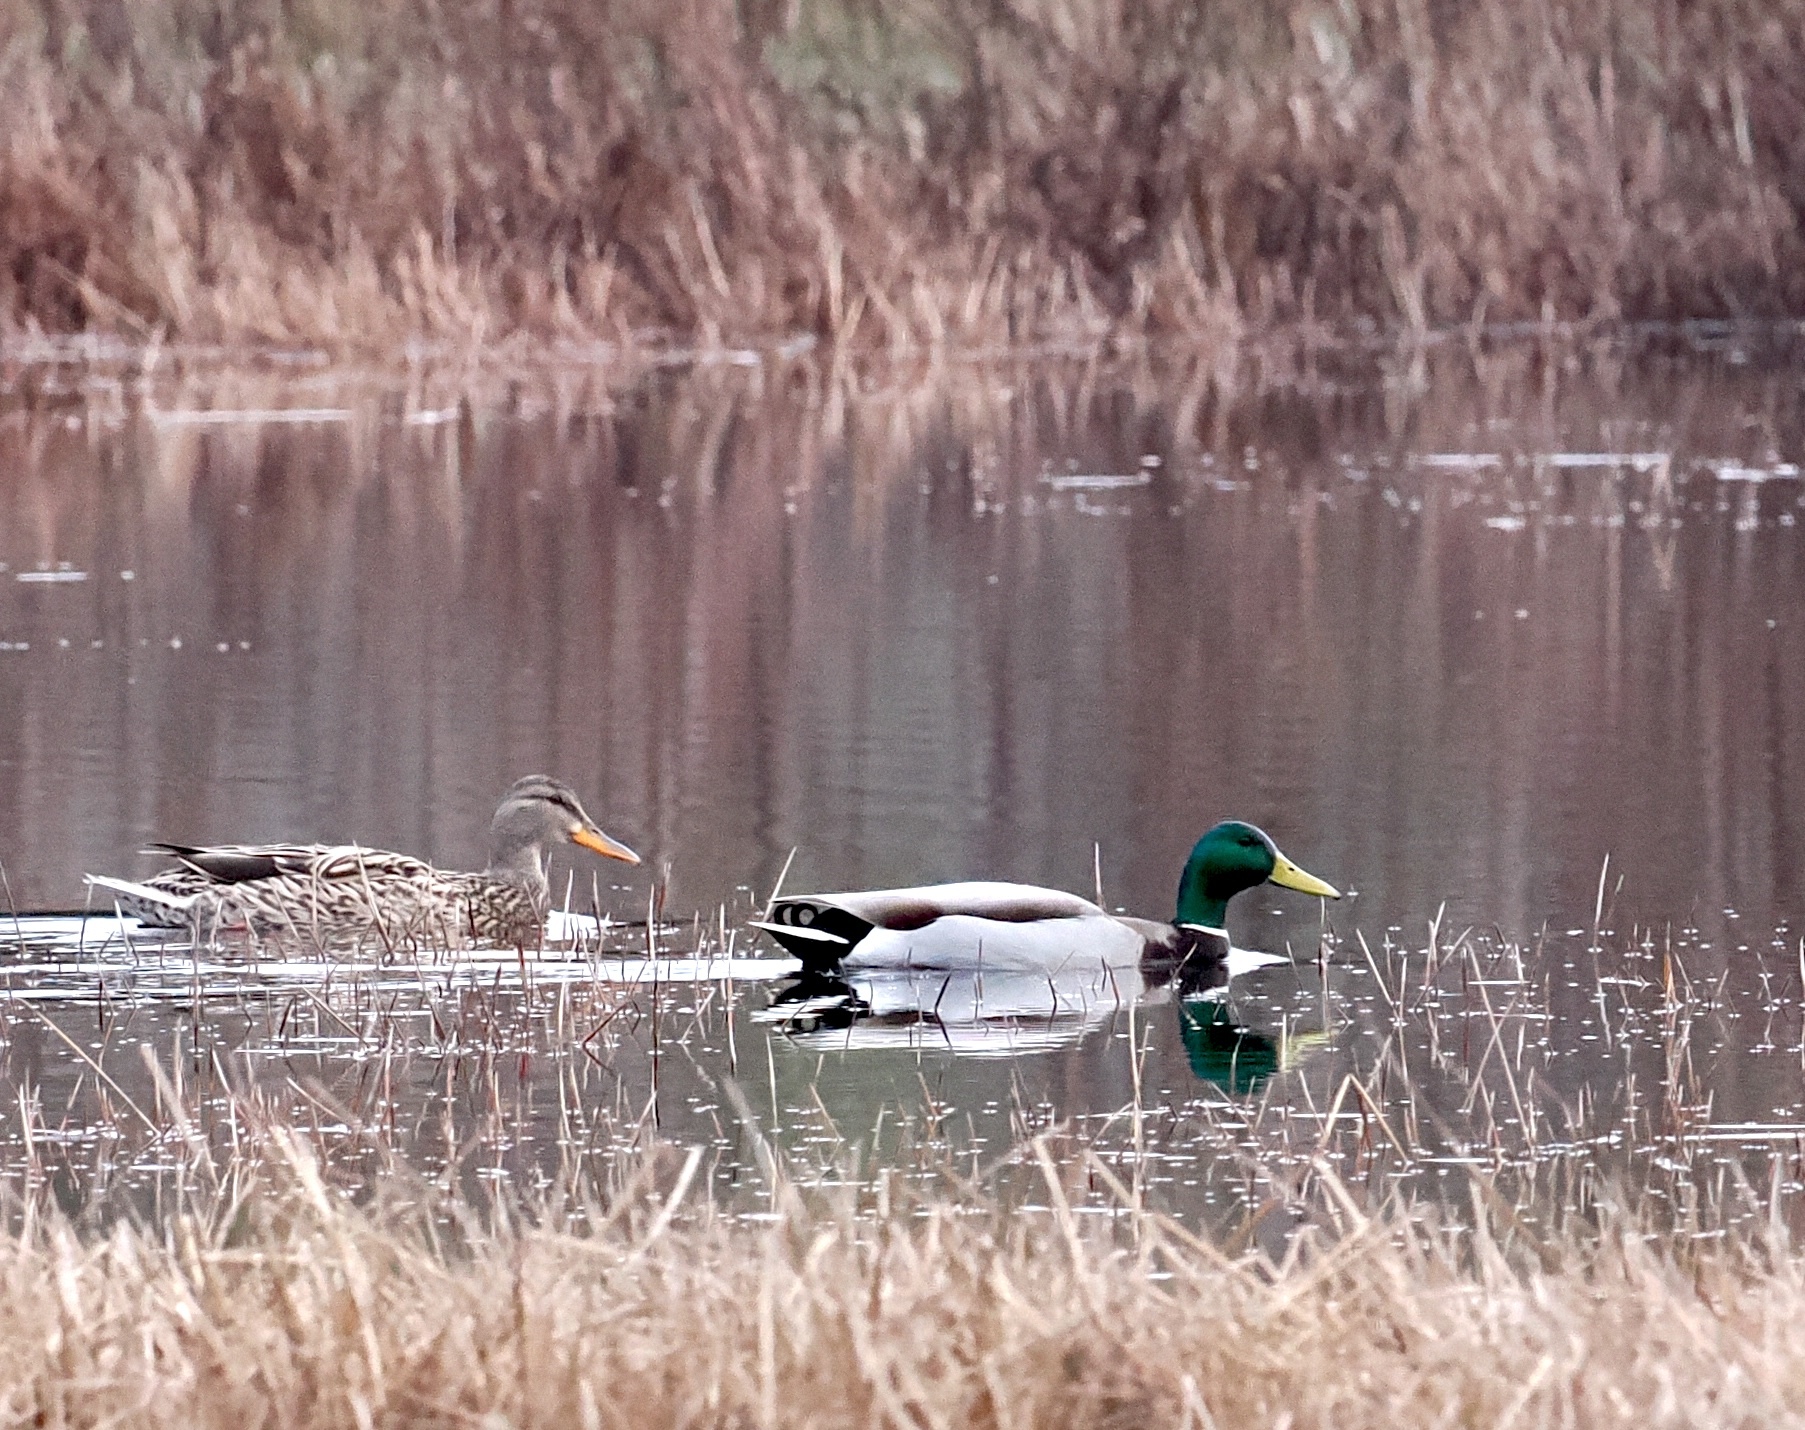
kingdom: Animalia
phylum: Chordata
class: Aves
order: Anseriformes
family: Anatidae
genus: Anas
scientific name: Anas platyrhynchos
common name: Mallard
